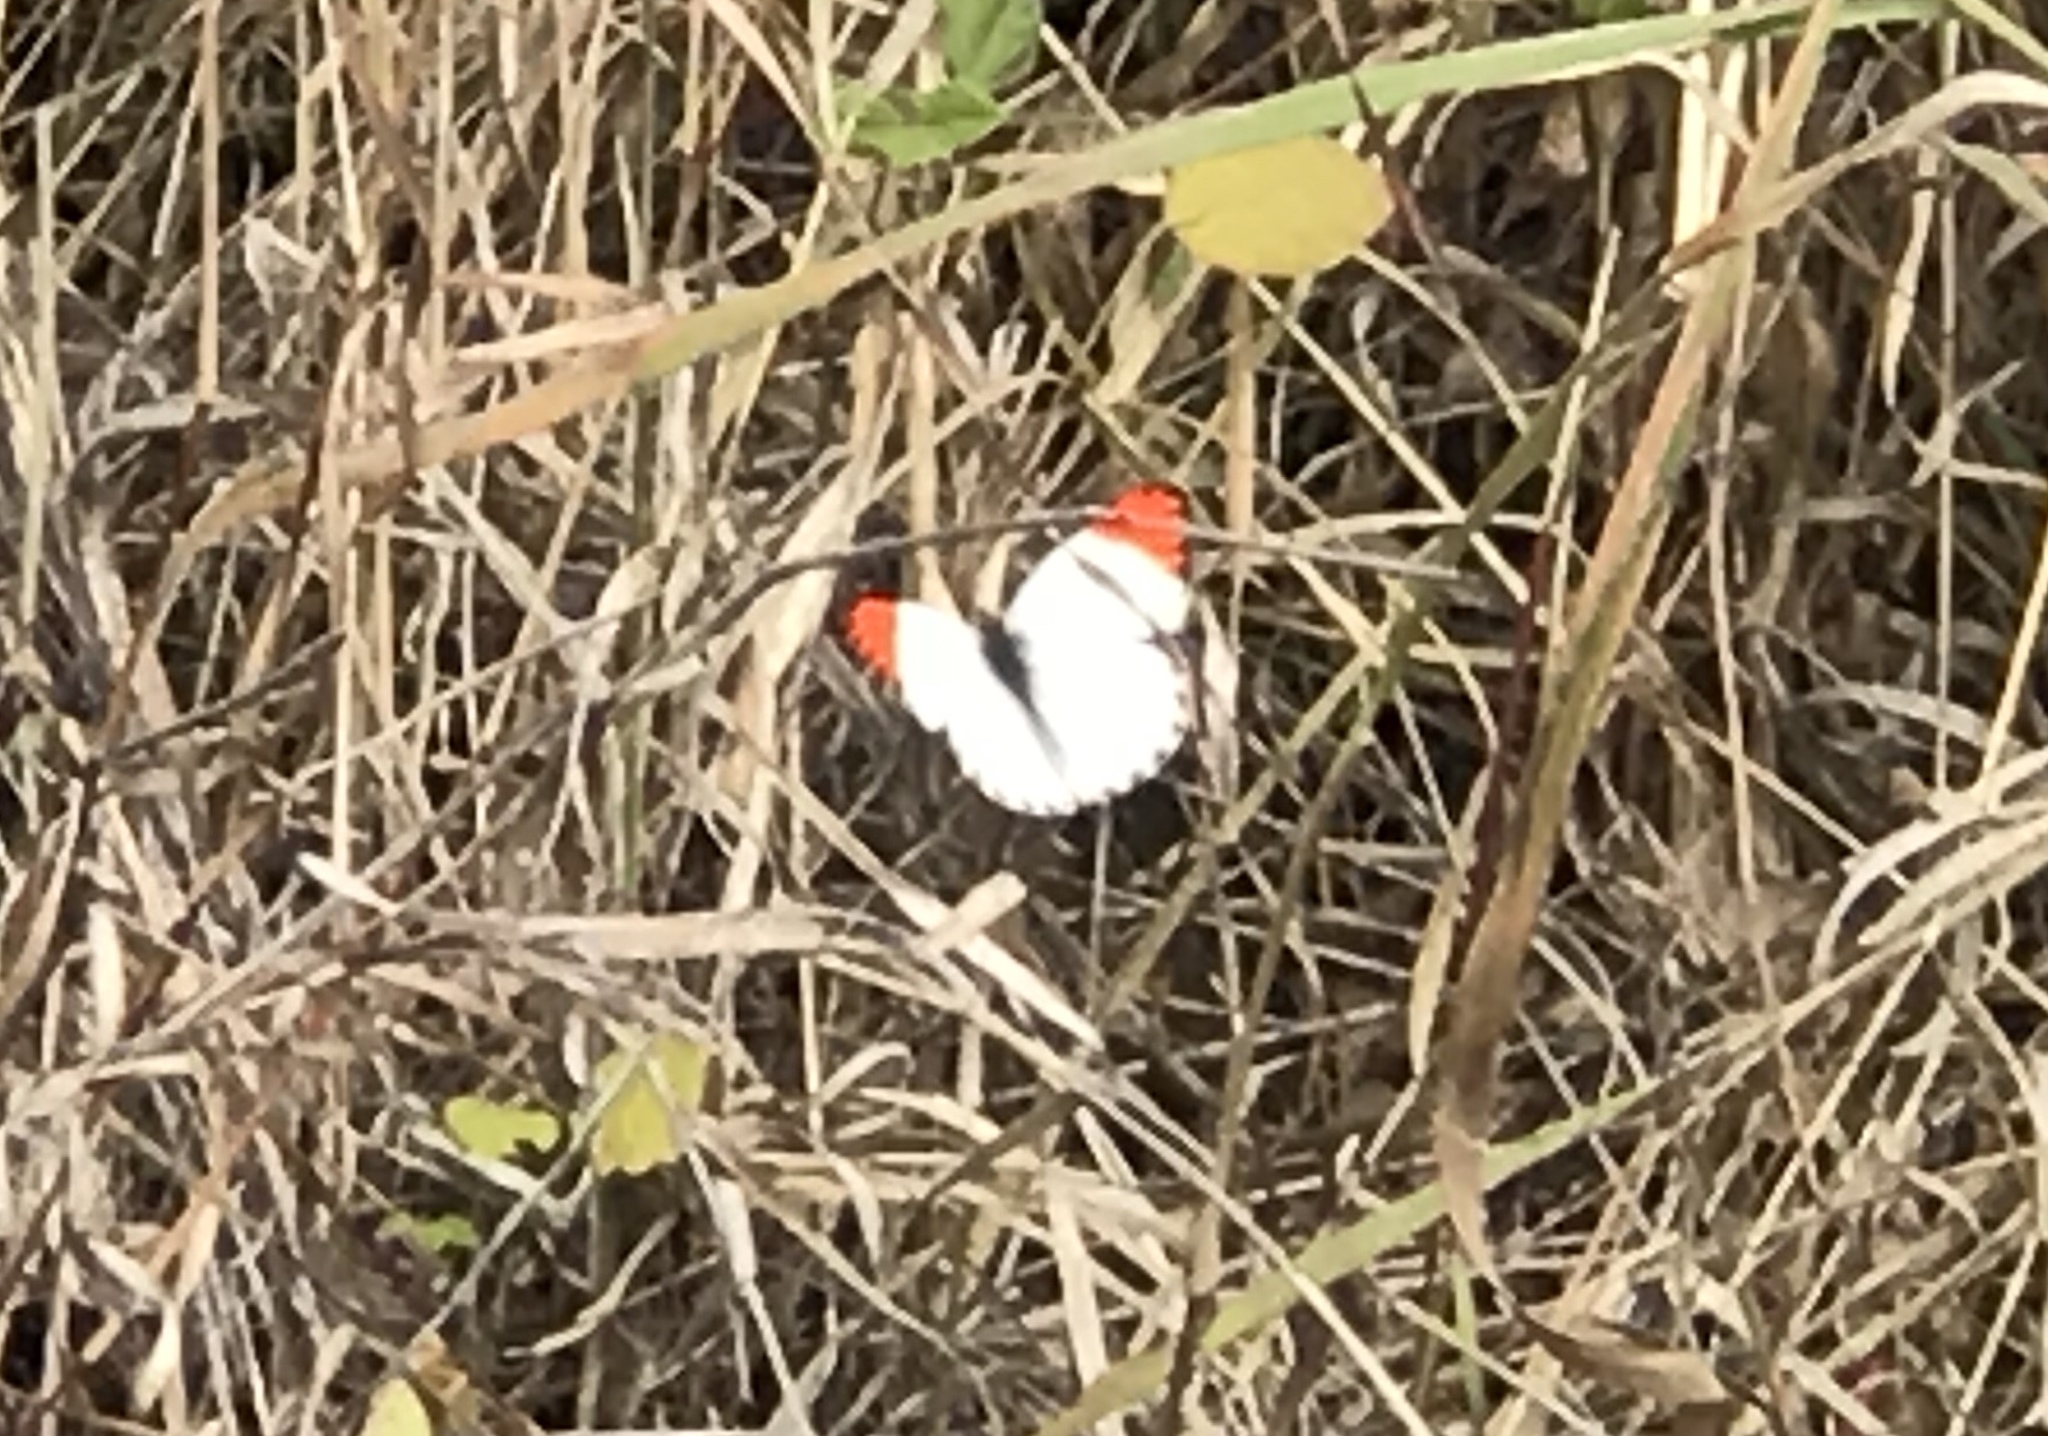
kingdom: Animalia
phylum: Arthropoda
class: Insecta
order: Lepidoptera
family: Pieridae
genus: Colotis
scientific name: Colotis antevippe
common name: Large orange tip
